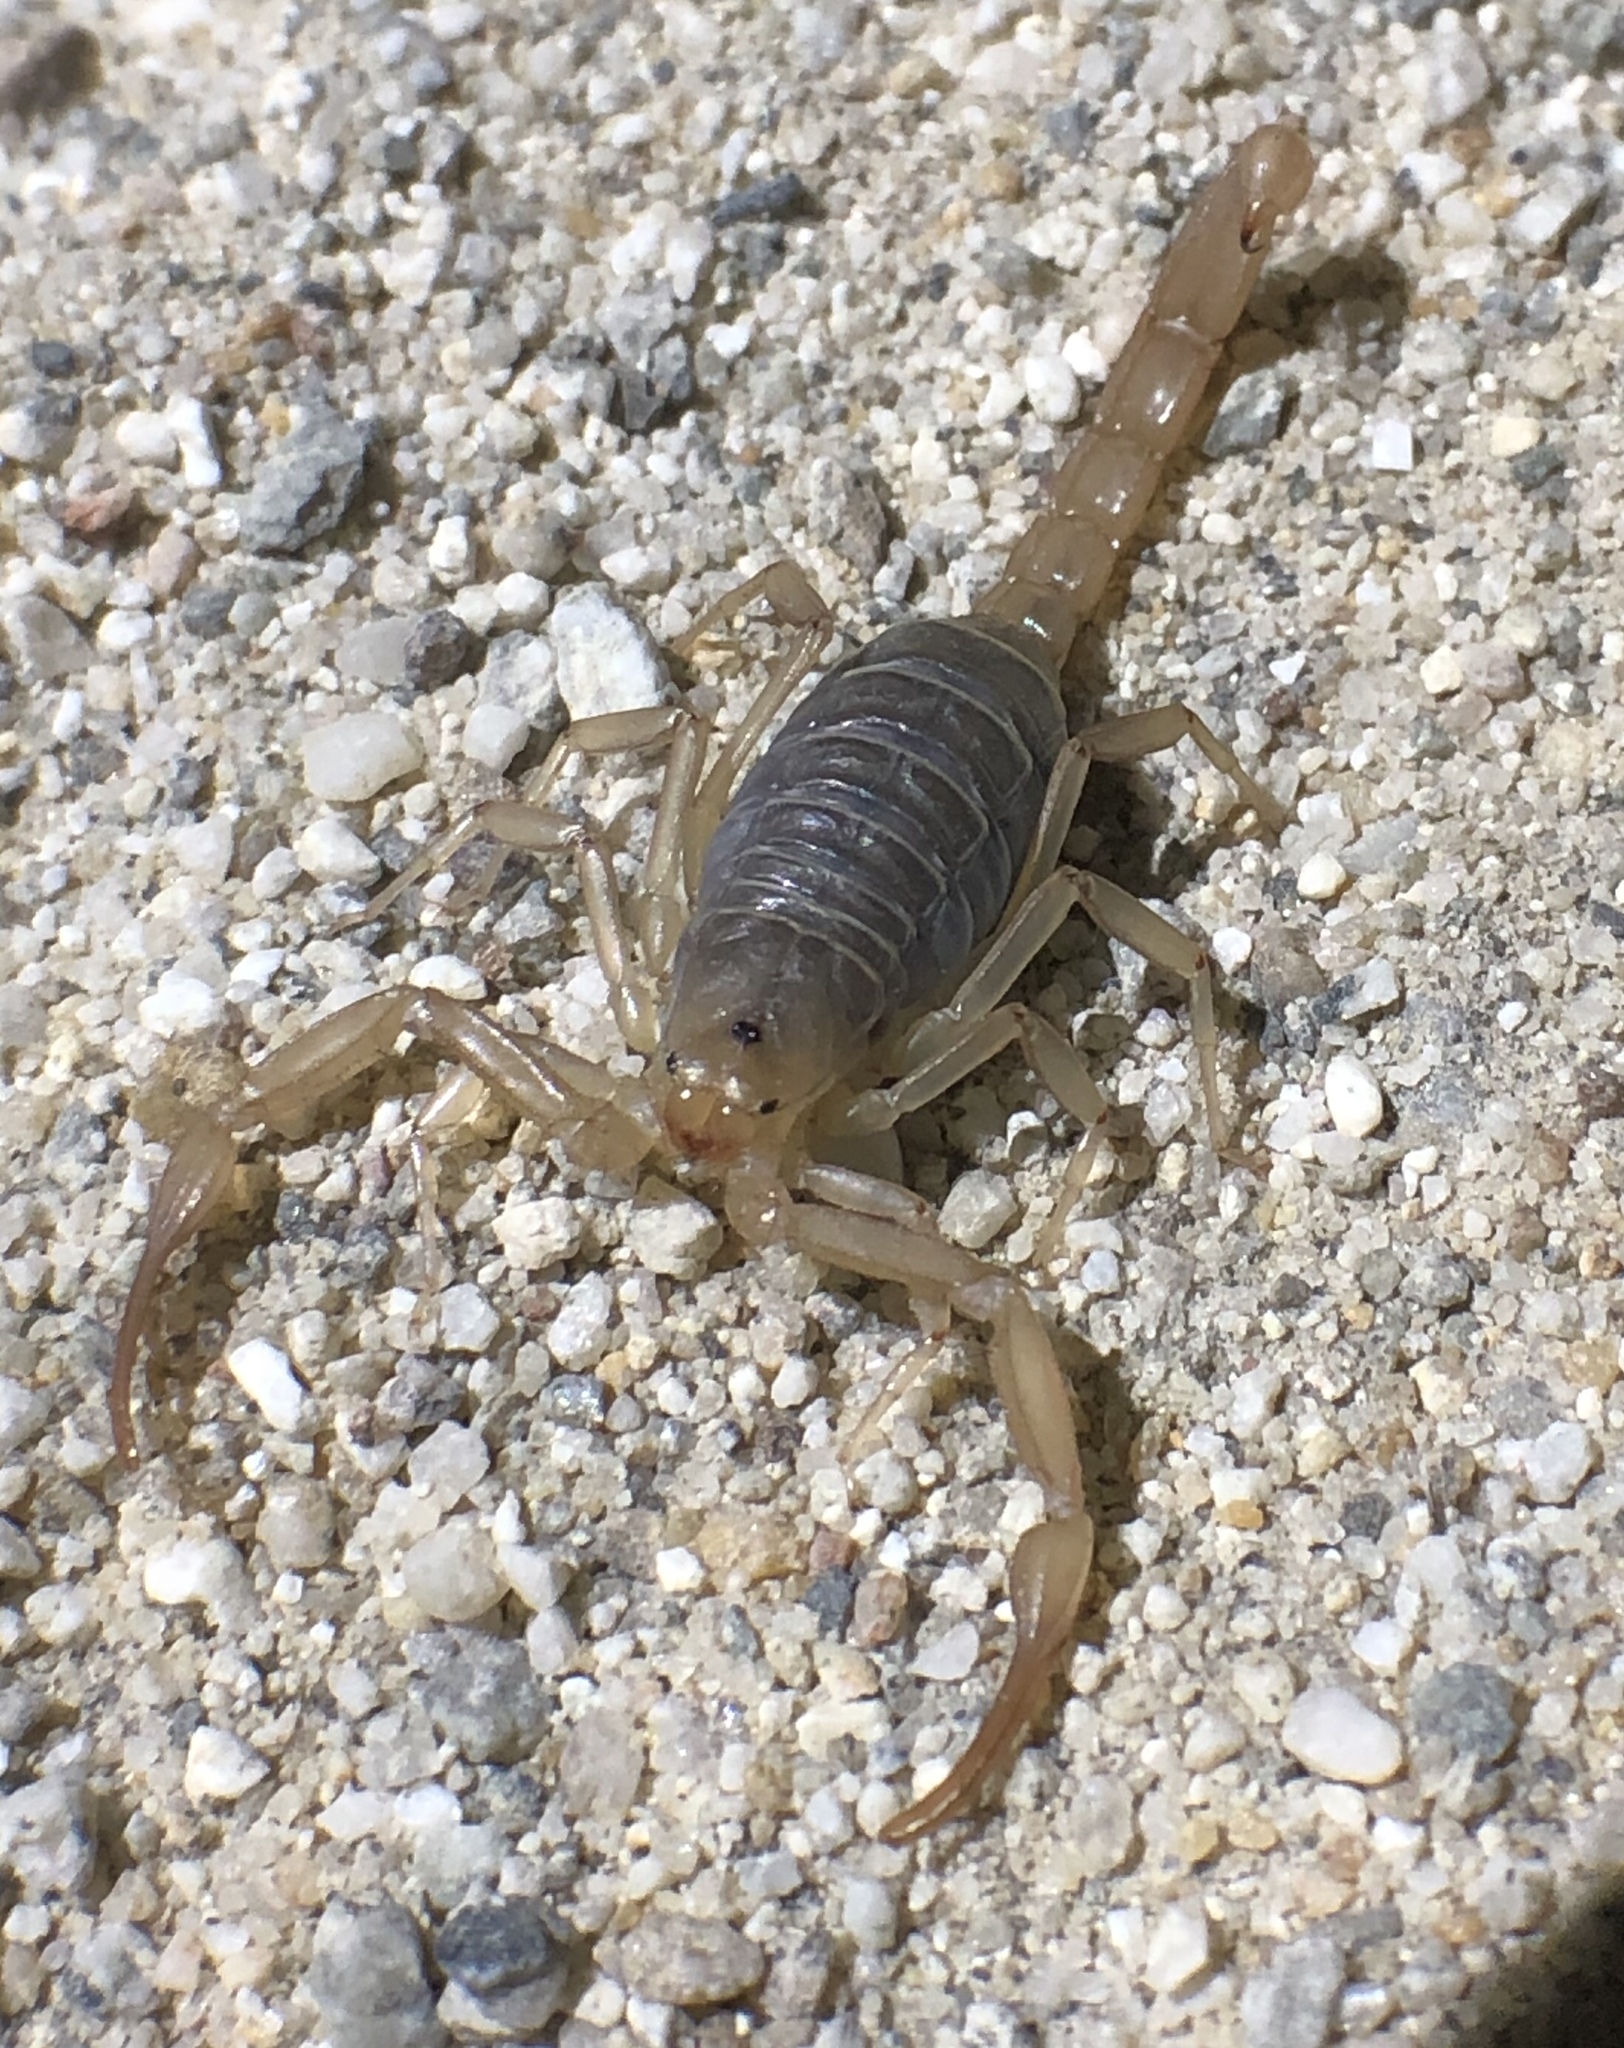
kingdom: Animalia
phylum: Arthropoda
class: Arachnida
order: Scorpiones
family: Vaejovidae
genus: Stahnkeus
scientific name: Stahnkeus subtilimanus
